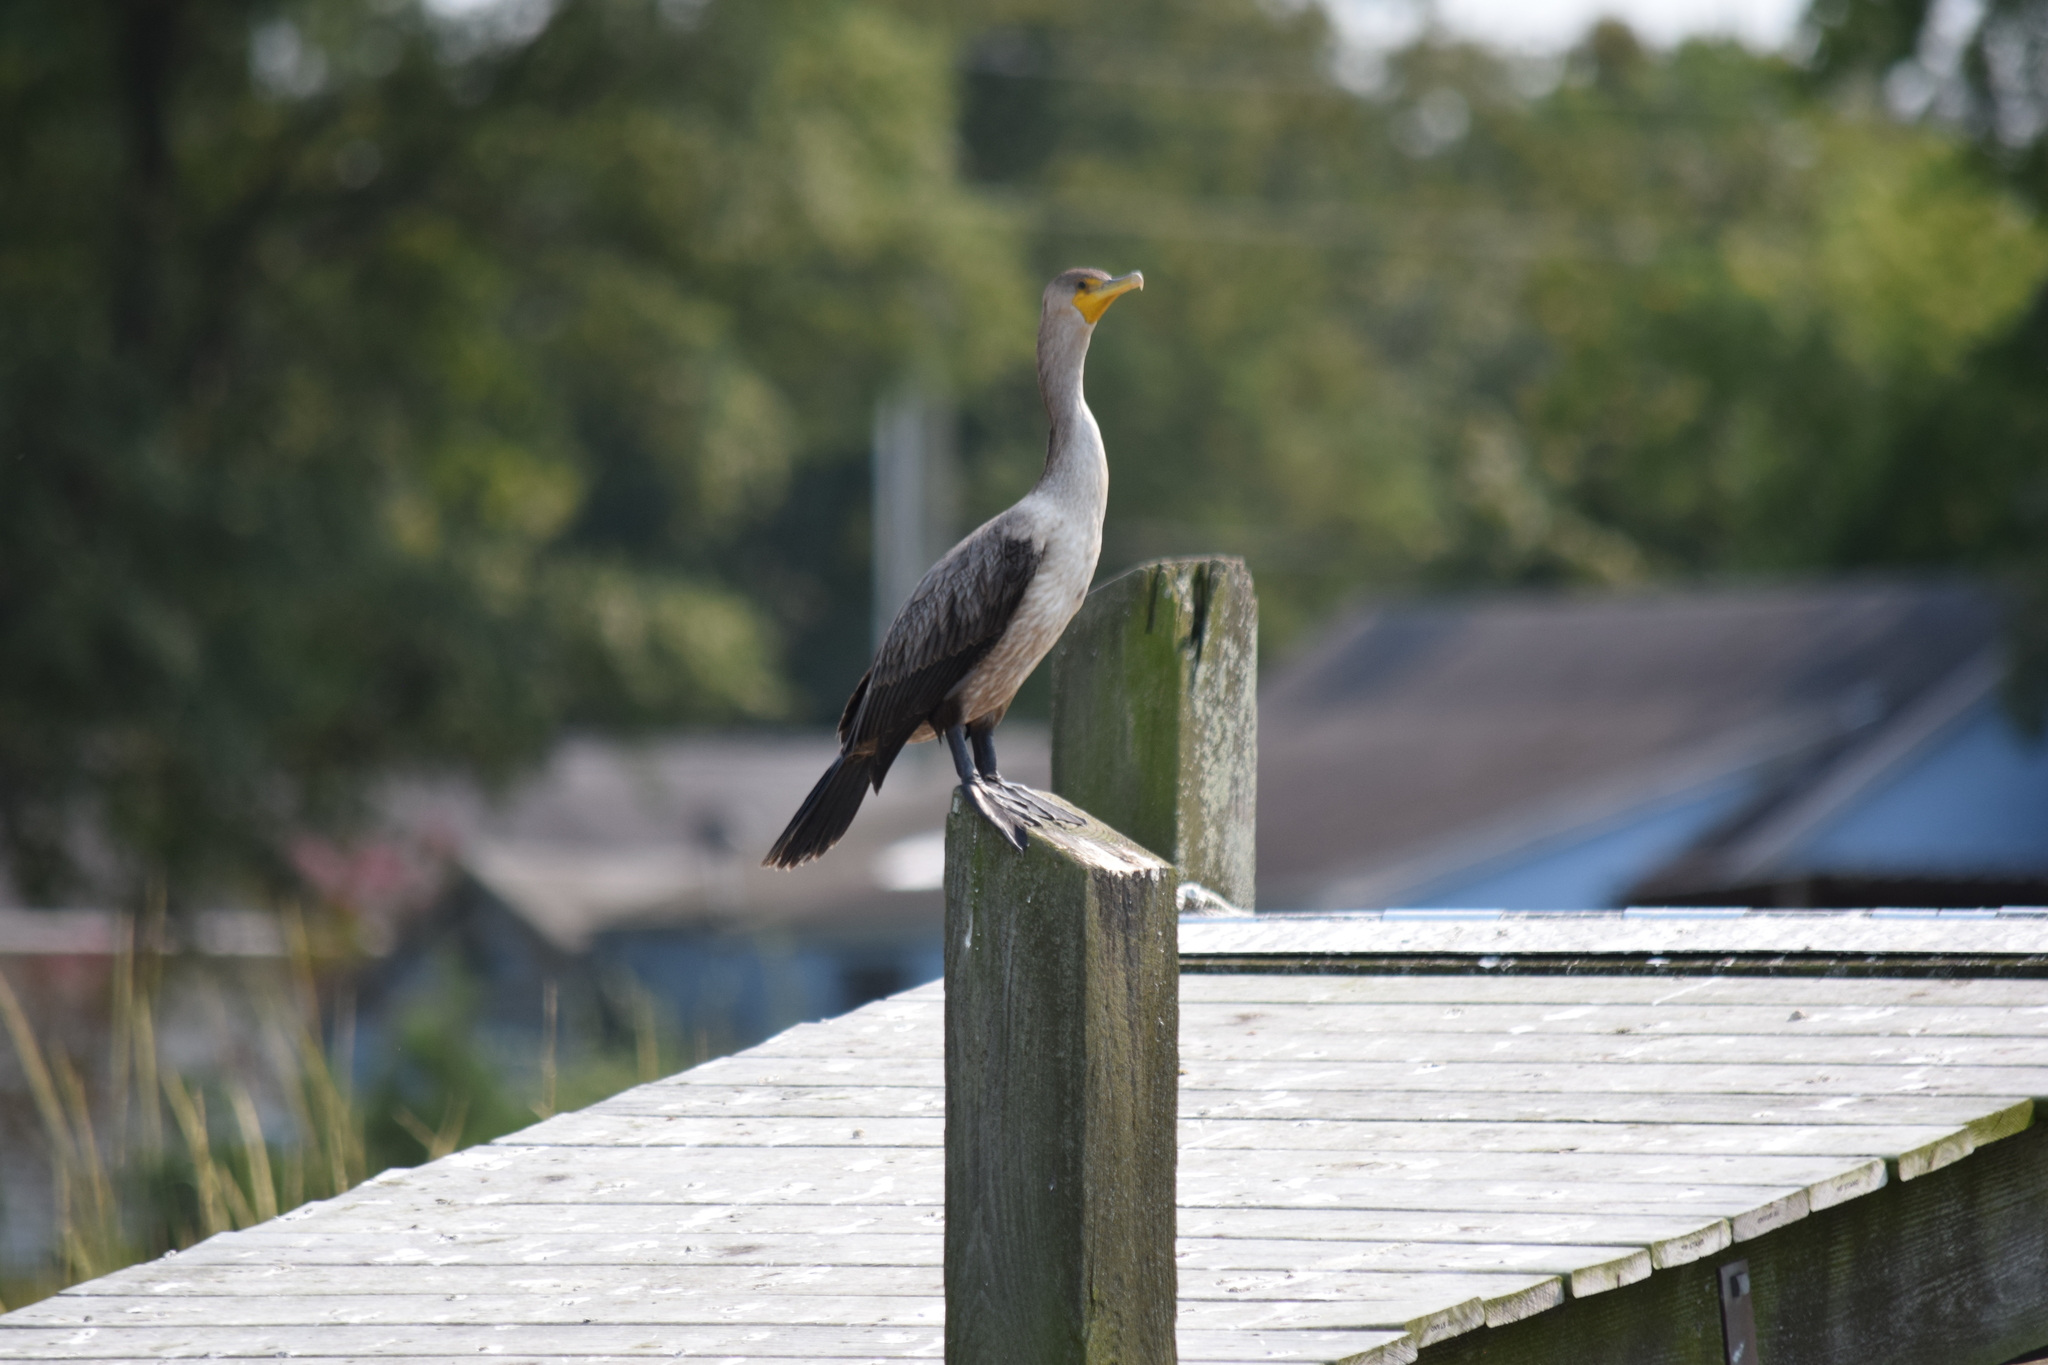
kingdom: Animalia
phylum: Chordata
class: Aves
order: Suliformes
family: Phalacrocoracidae
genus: Phalacrocorax
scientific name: Phalacrocorax auritus
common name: Double-crested cormorant
